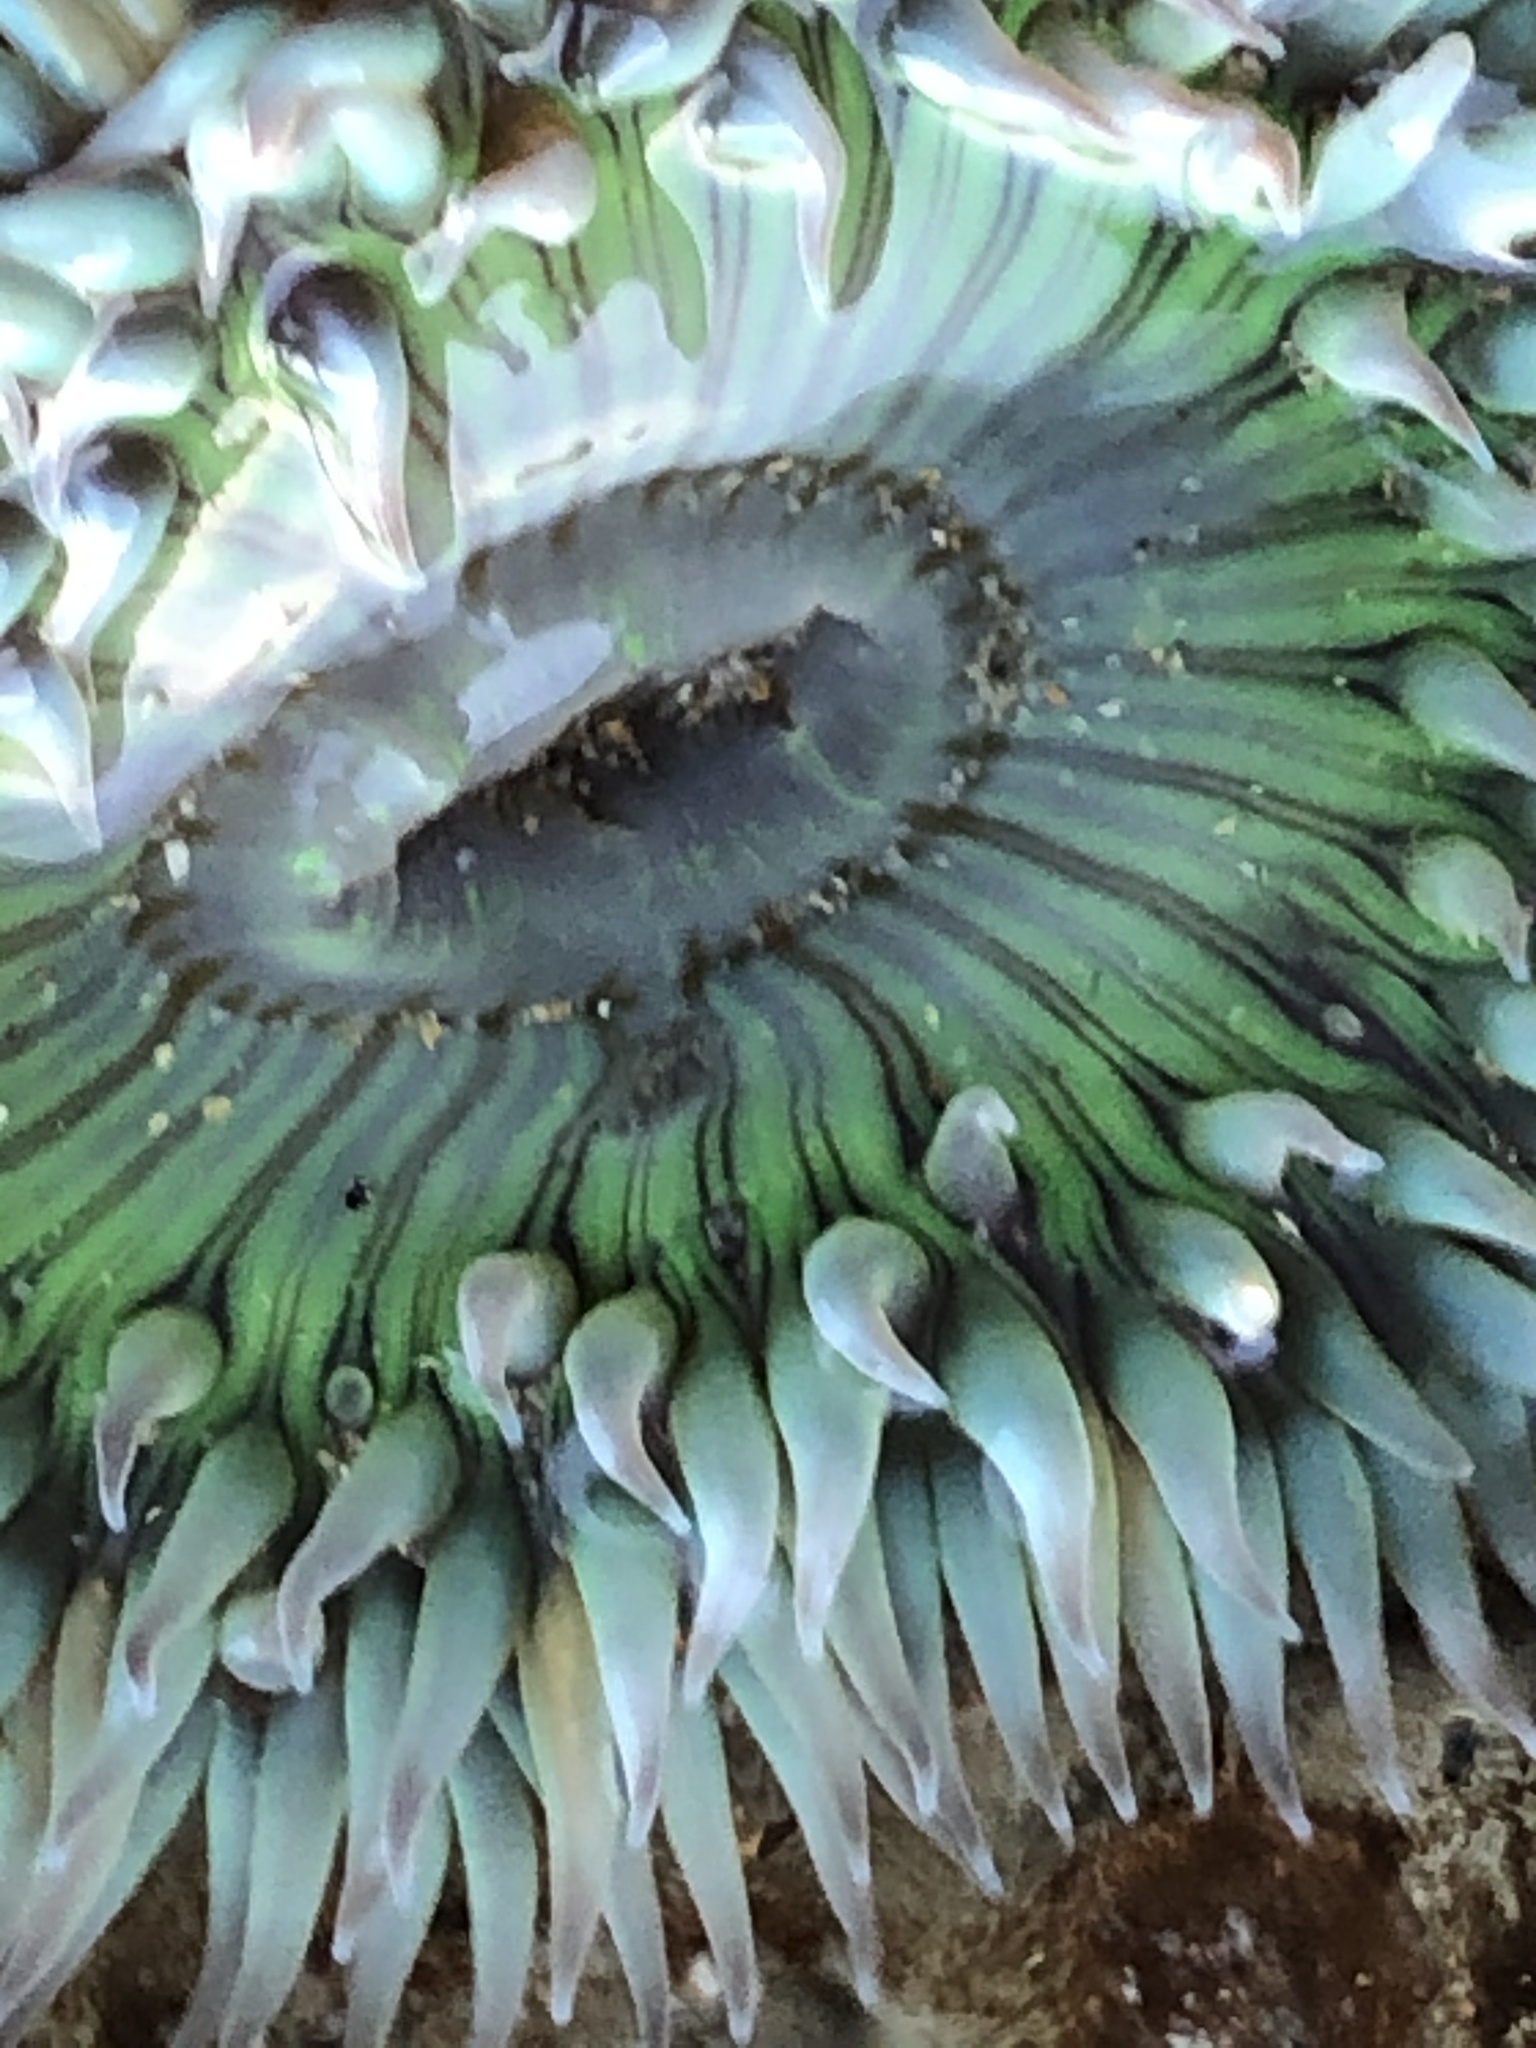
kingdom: Animalia
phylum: Cnidaria
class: Anthozoa
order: Actiniaria
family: Actiniidae
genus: Anthopleura
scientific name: Anthopleura sola
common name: Sun anemone
